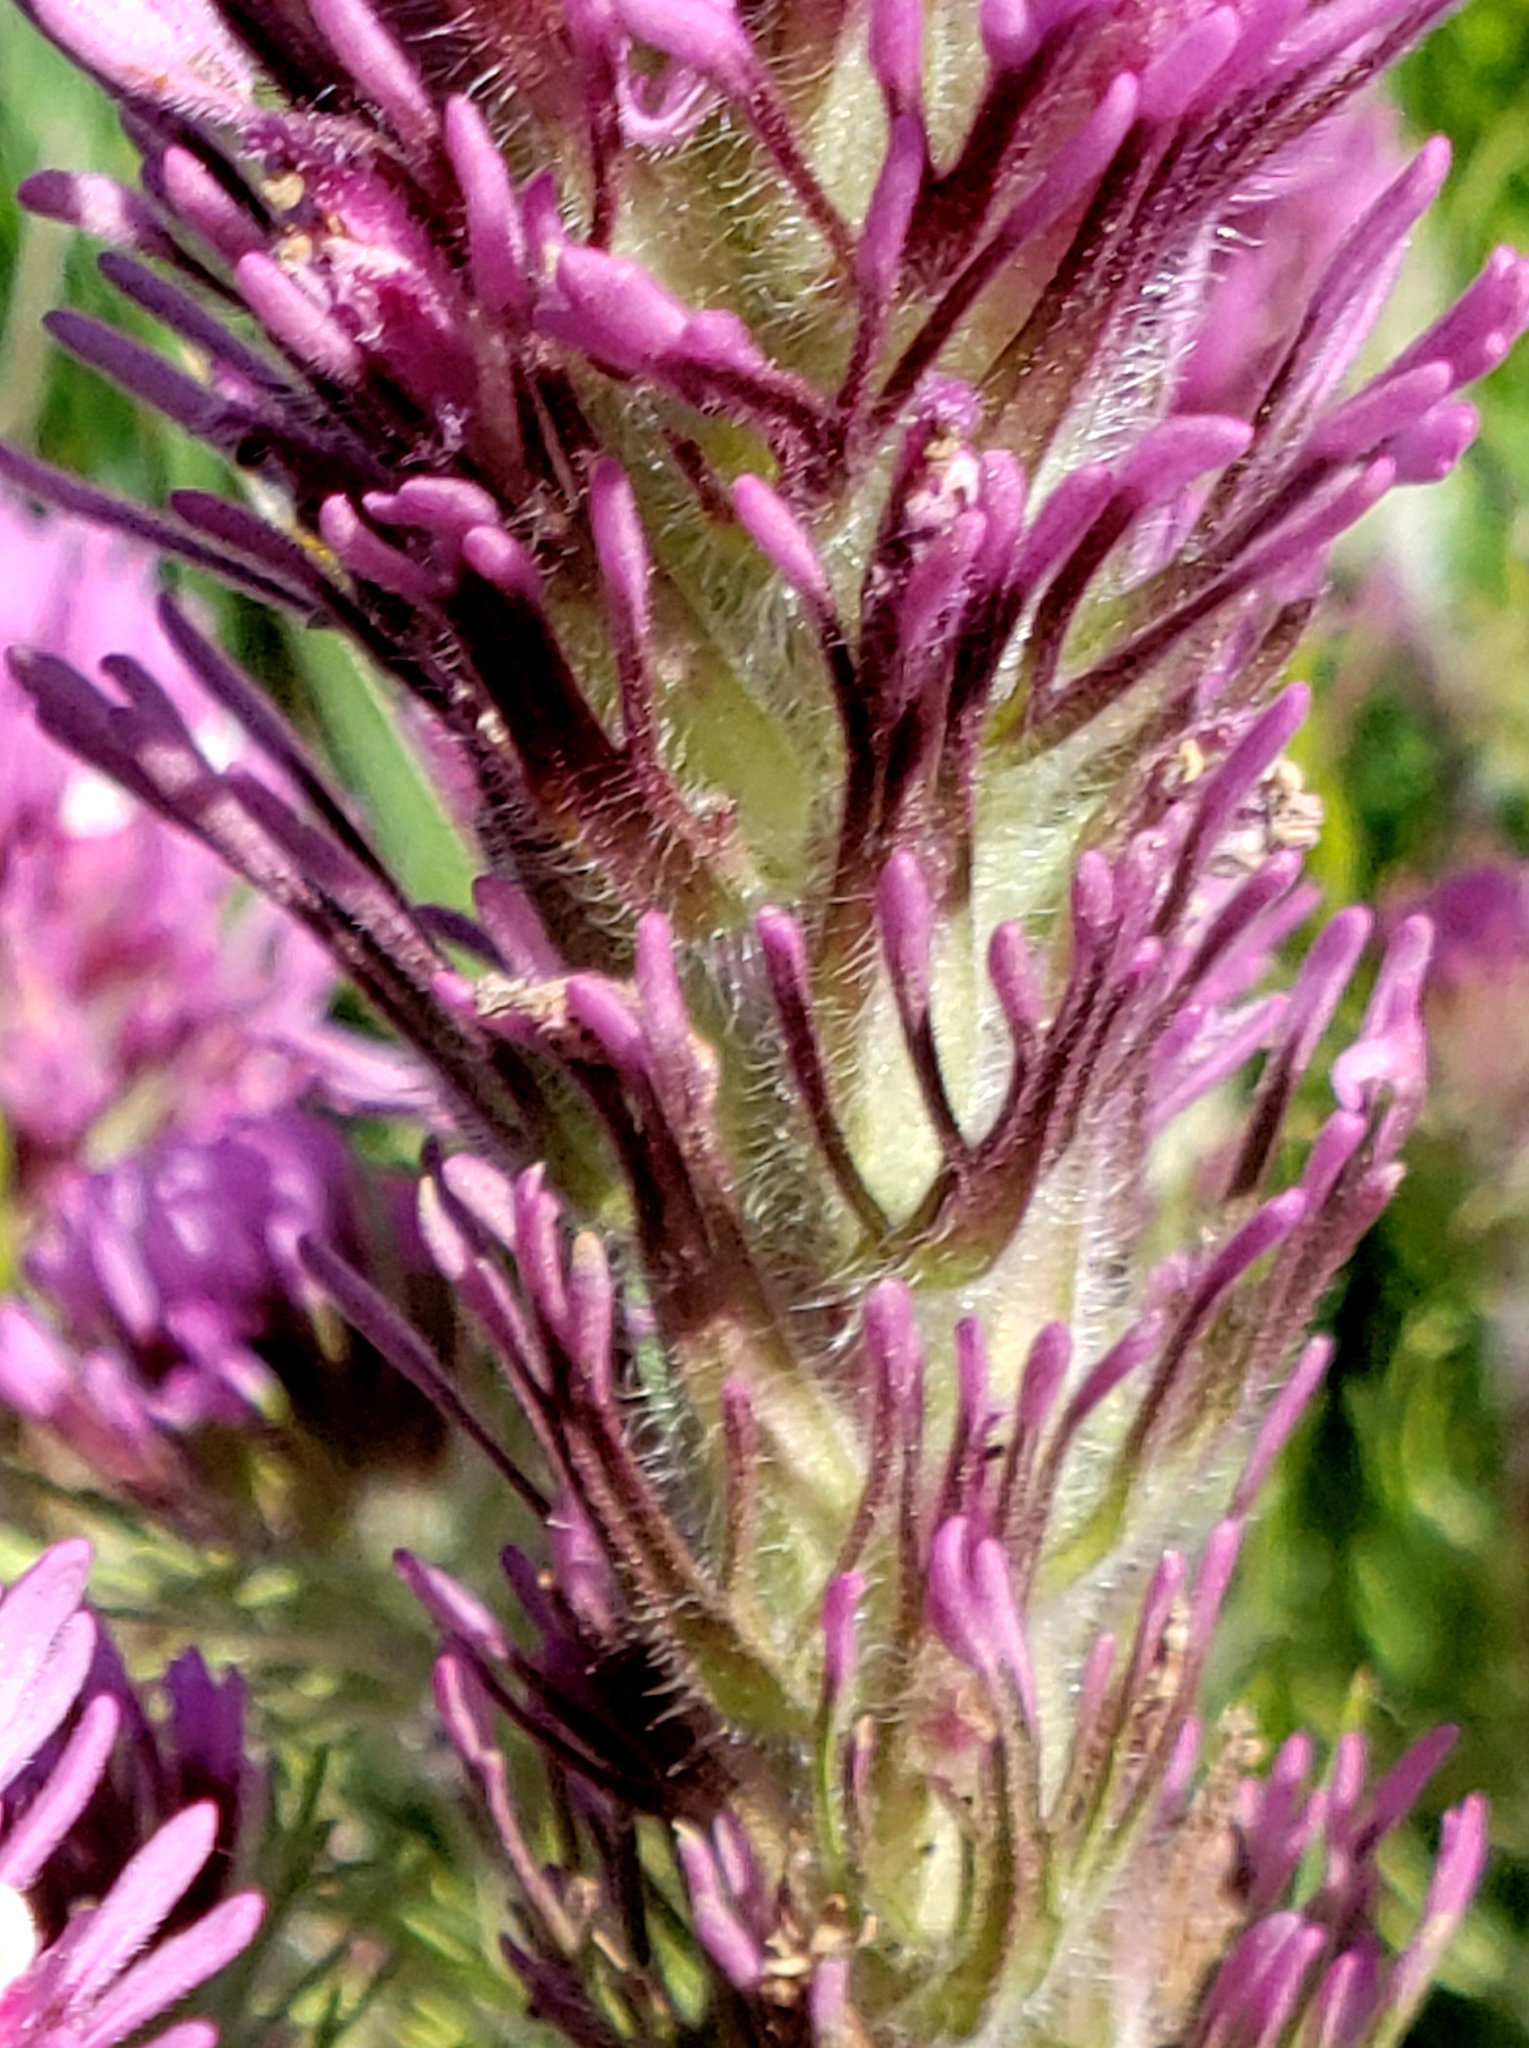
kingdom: Plantae
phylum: Tracheophyta
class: Magnoliopsida
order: Lamiales
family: Orobanchaceae
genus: Castilleja
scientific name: Castilleja exserta
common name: Purple owl-clover
